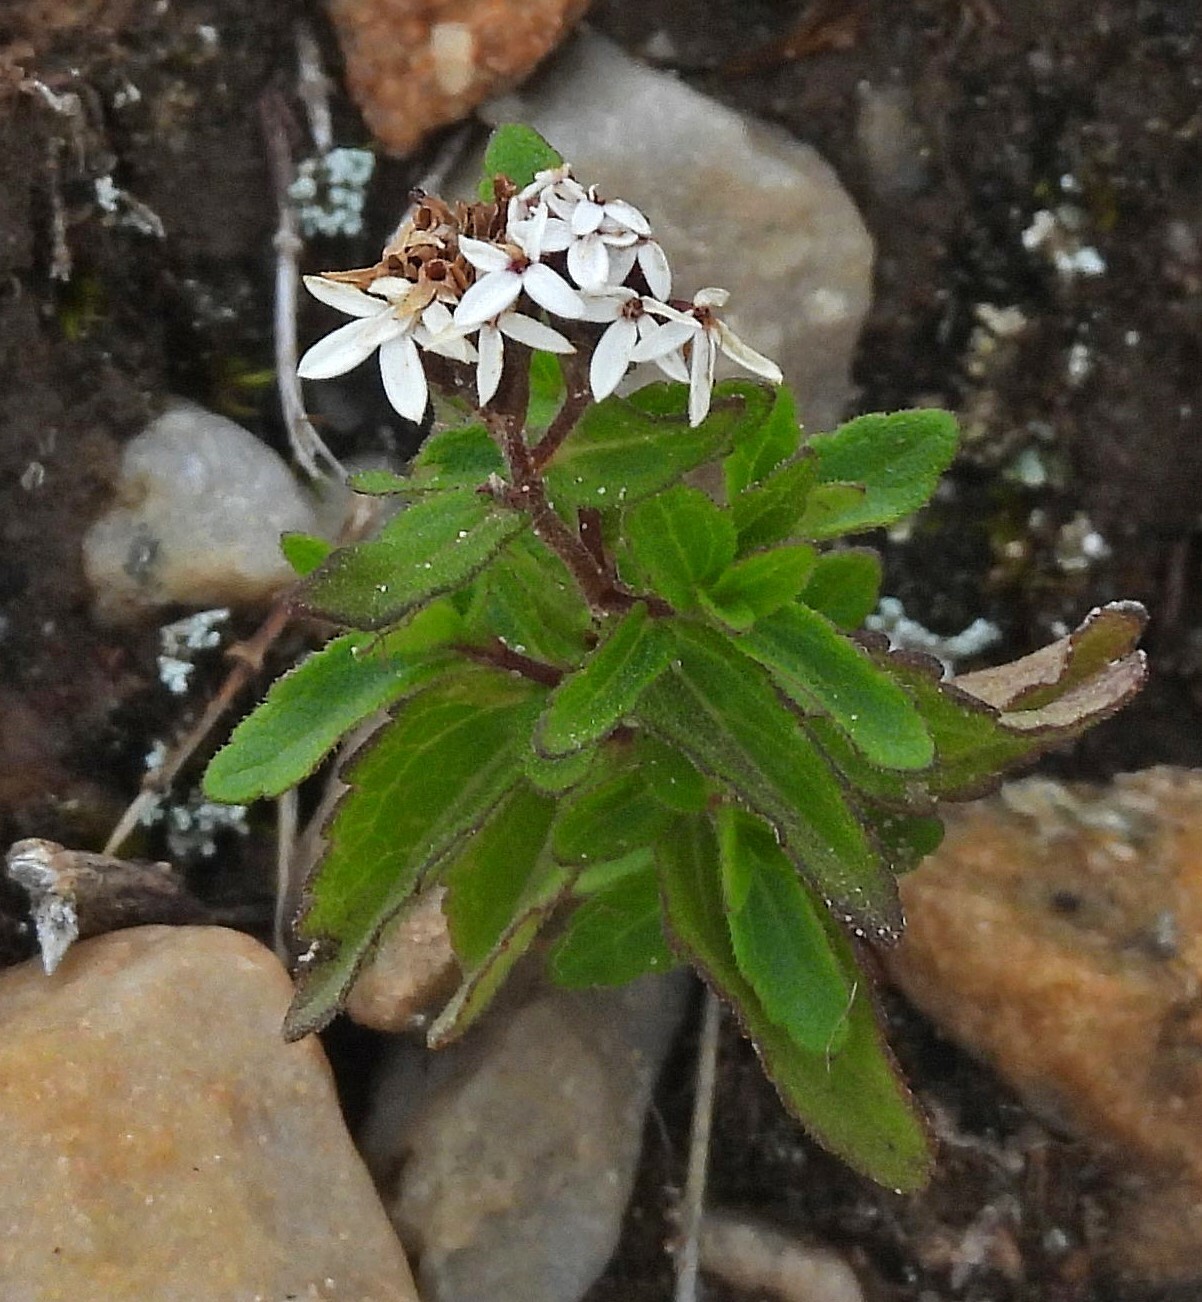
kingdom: Plantae
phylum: Tracheophyta
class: Magnoliopsida
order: Asterales
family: Asteraceae
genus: Stevia
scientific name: Stevia chamaedrys
